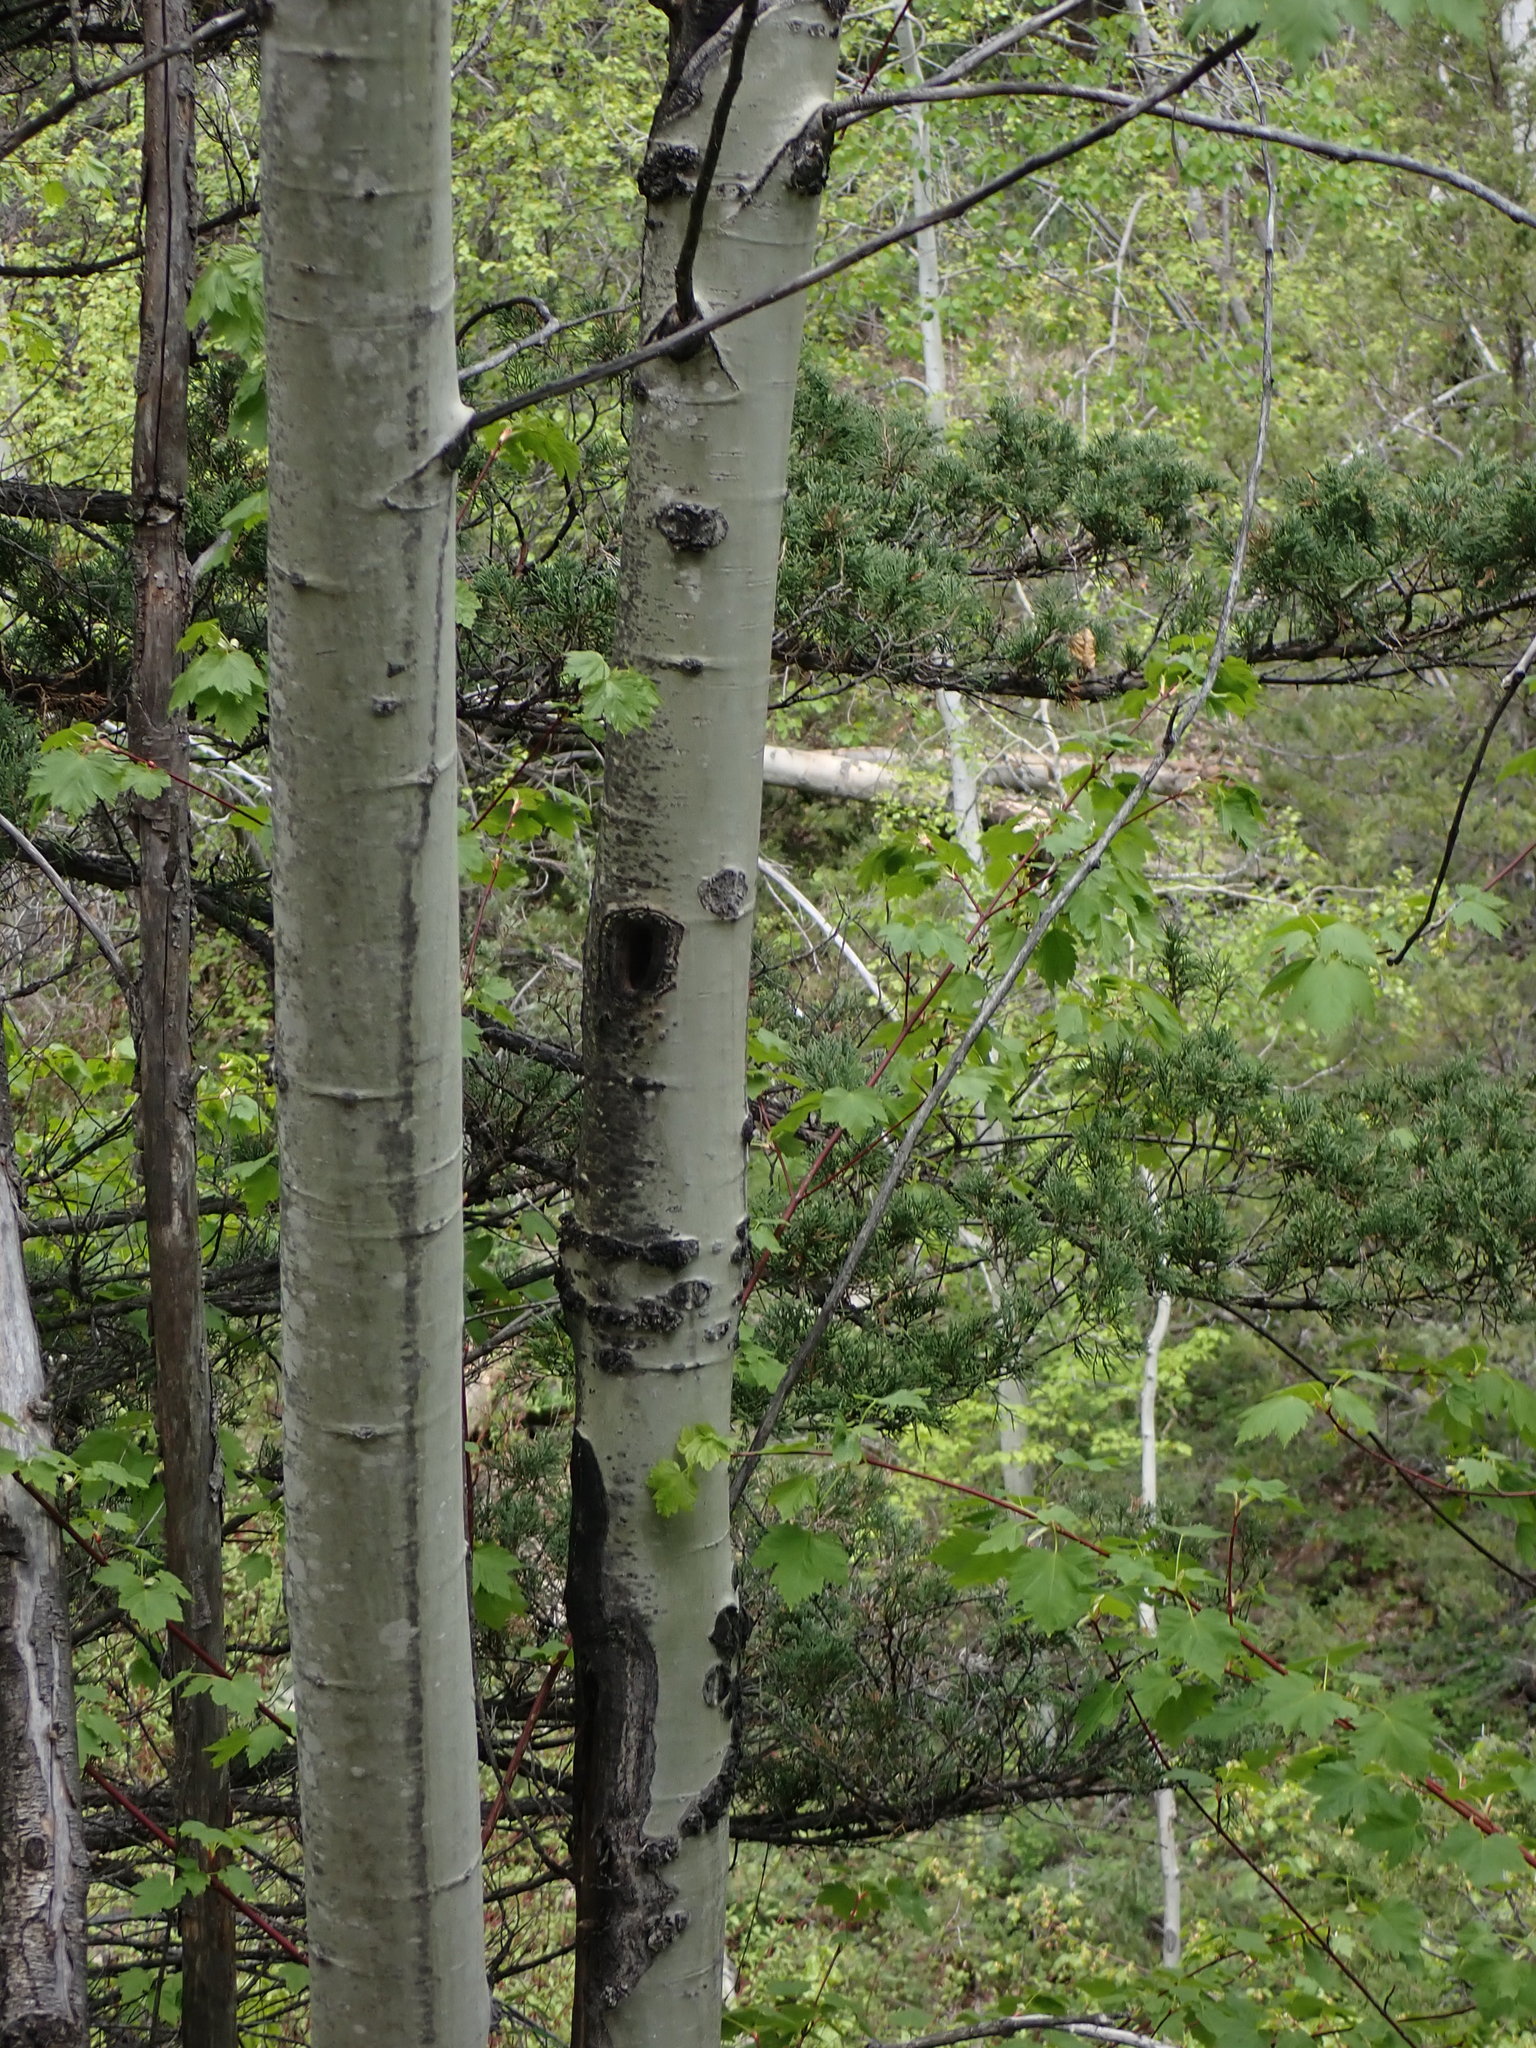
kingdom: Plantae
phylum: Tracheophyta
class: Magnoliopsida
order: Malpighiales
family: Salicaceae
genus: Populus
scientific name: Populus tremuloides
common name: Quaking aspen
